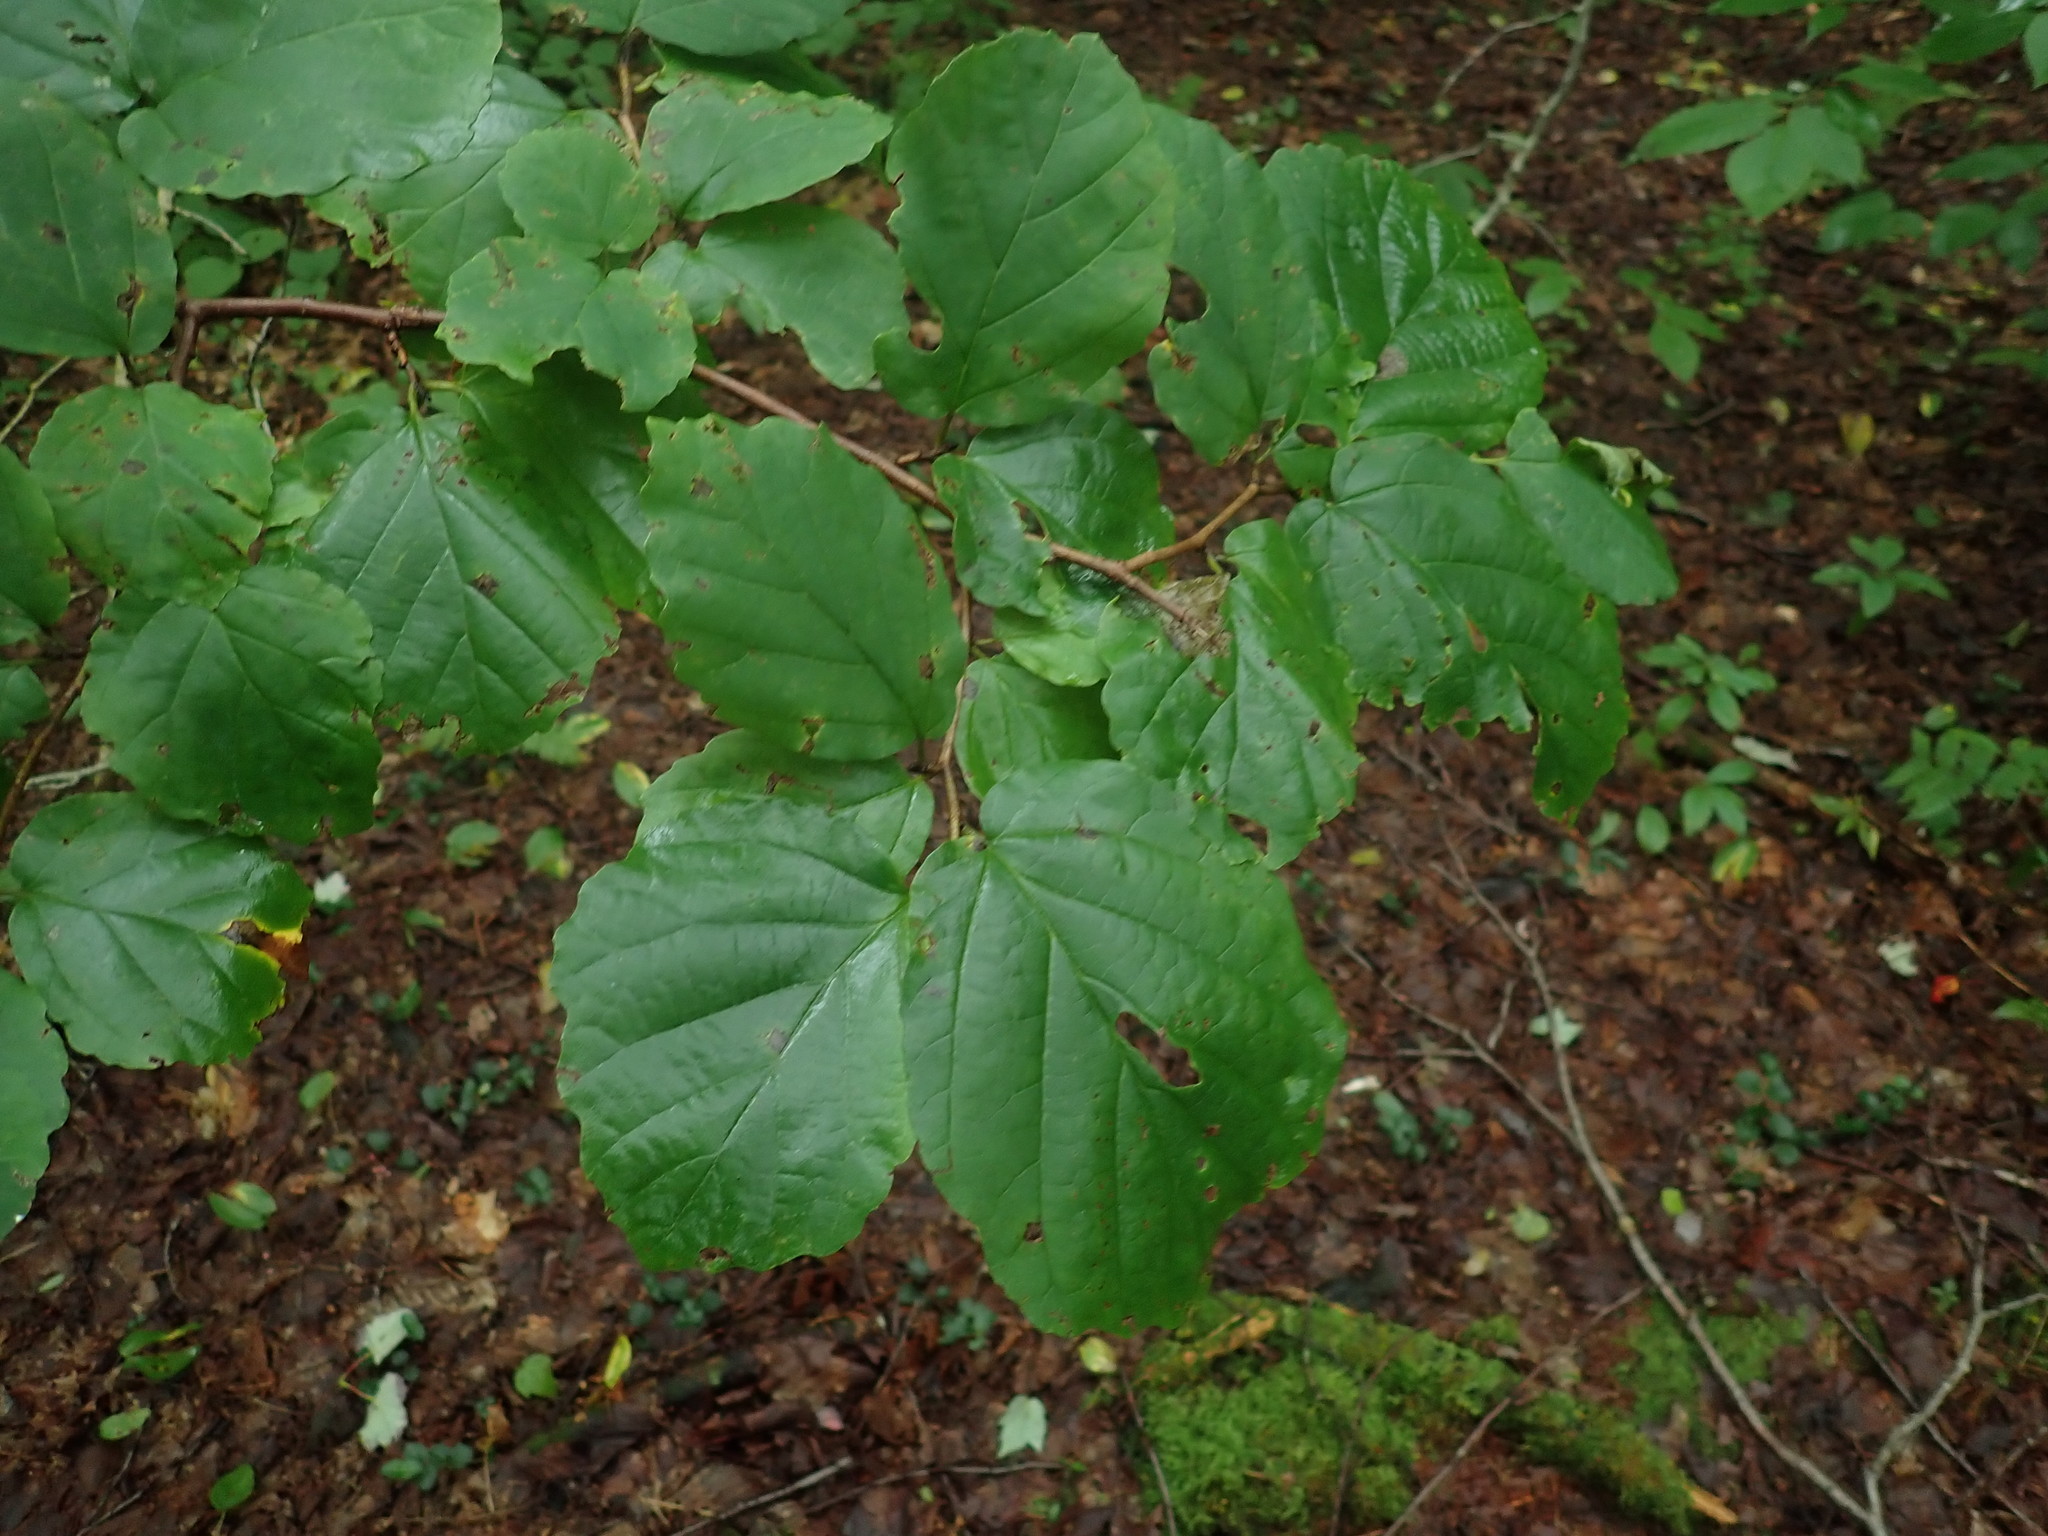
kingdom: Plantae
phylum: Tracheophyta
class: Magnoliopsida
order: Saxifragales
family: Hamamelidaceae
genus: Hamamelis
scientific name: Hamamelis virginiana
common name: Witch-hazel
